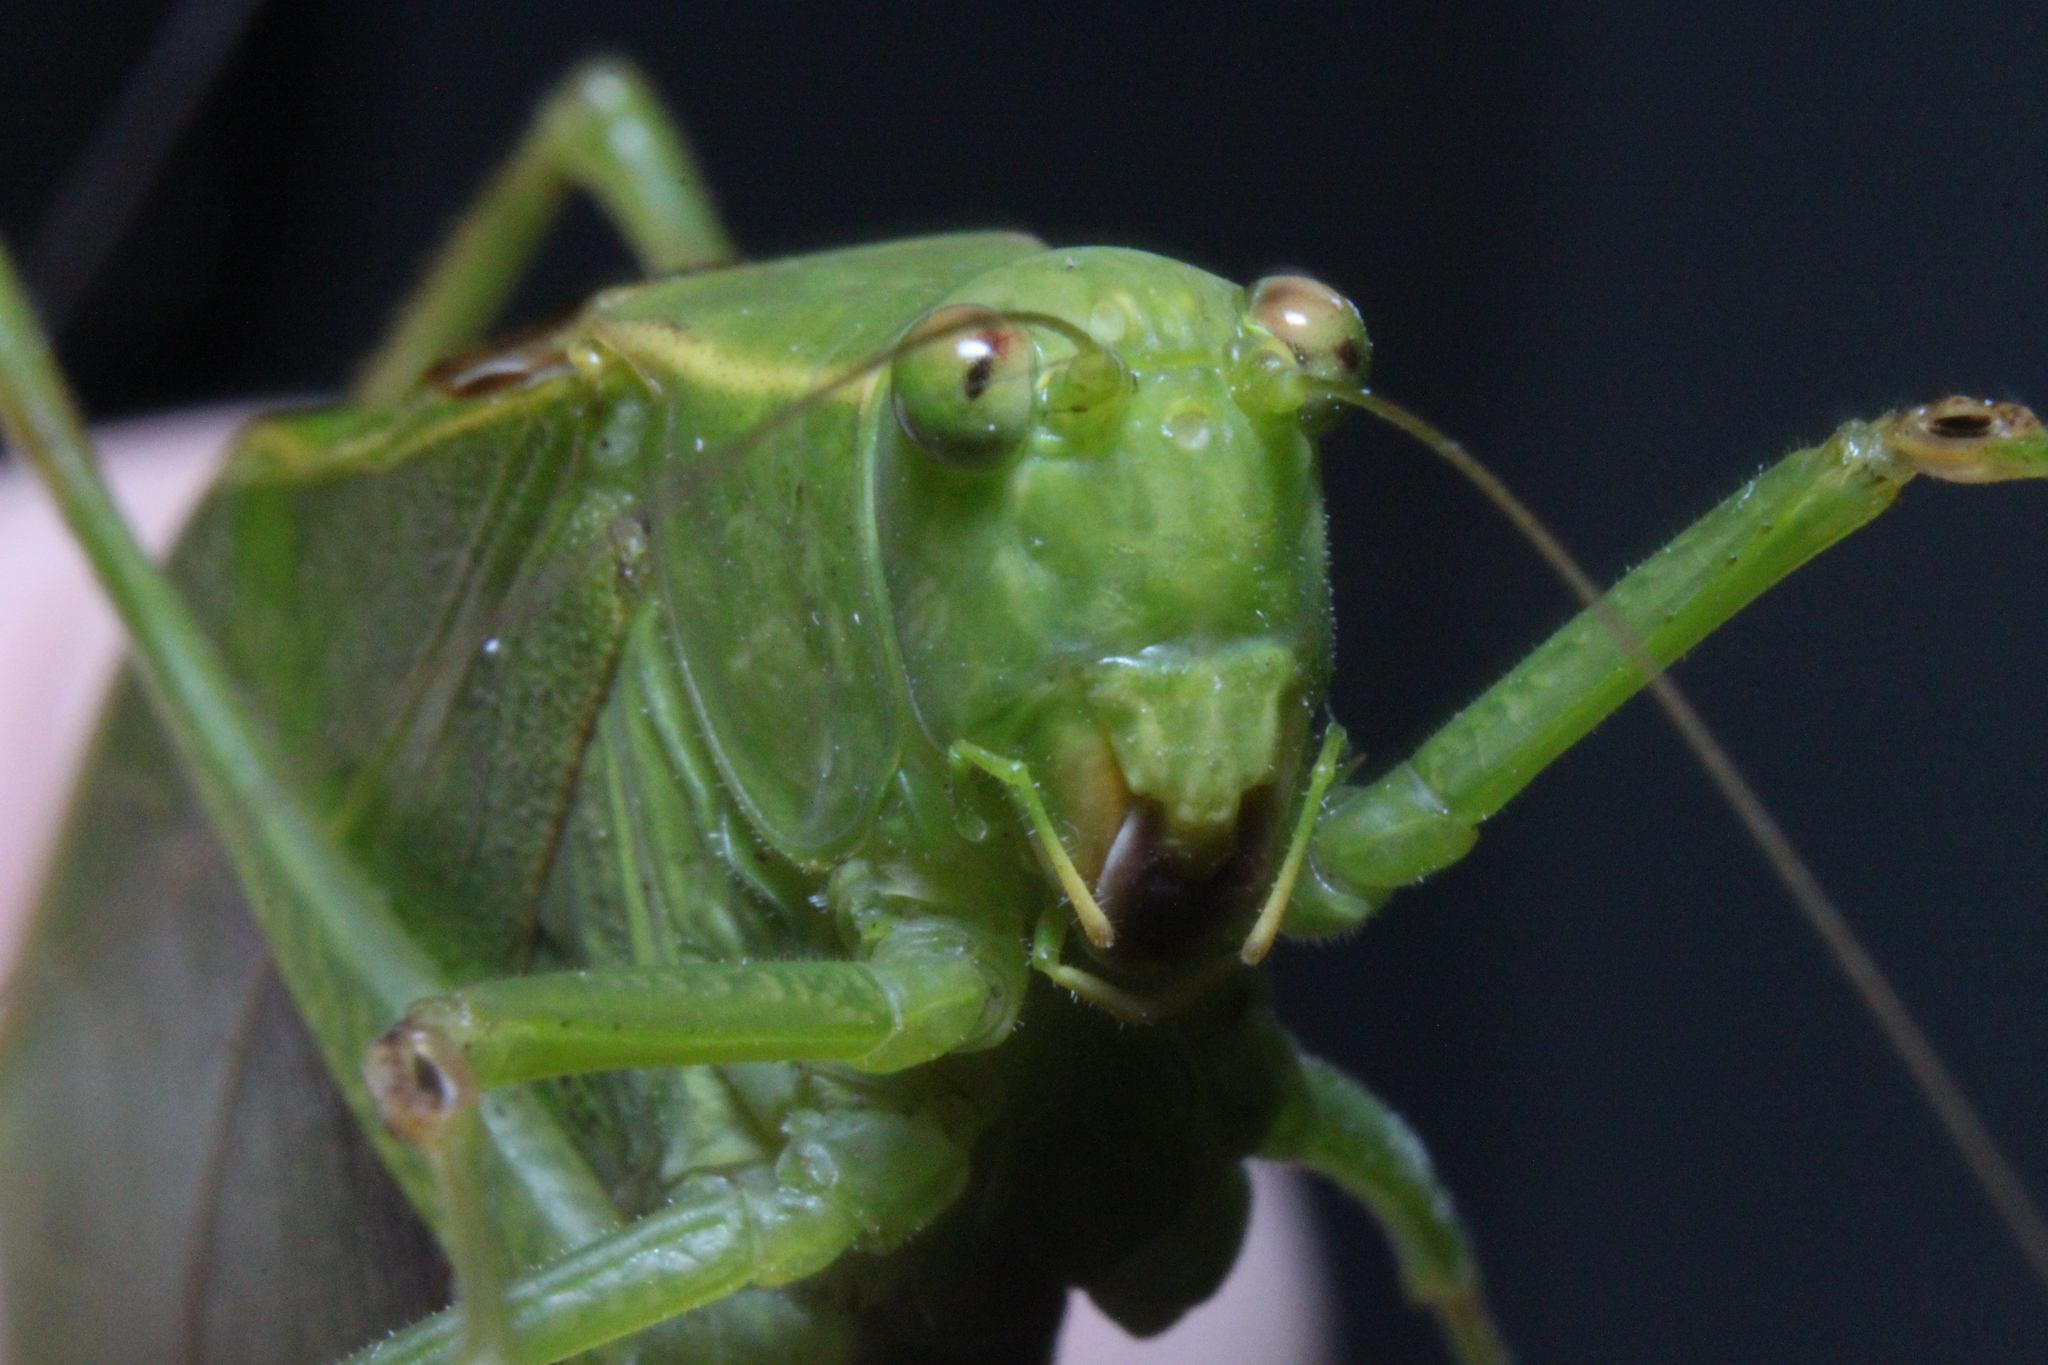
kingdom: Animalia
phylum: Arthropoda
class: Insecta
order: Orthoptera
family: Tettigoniidae
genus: Microcentrum
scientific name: Microcentrum retinerve
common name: Angular-winged katydid
